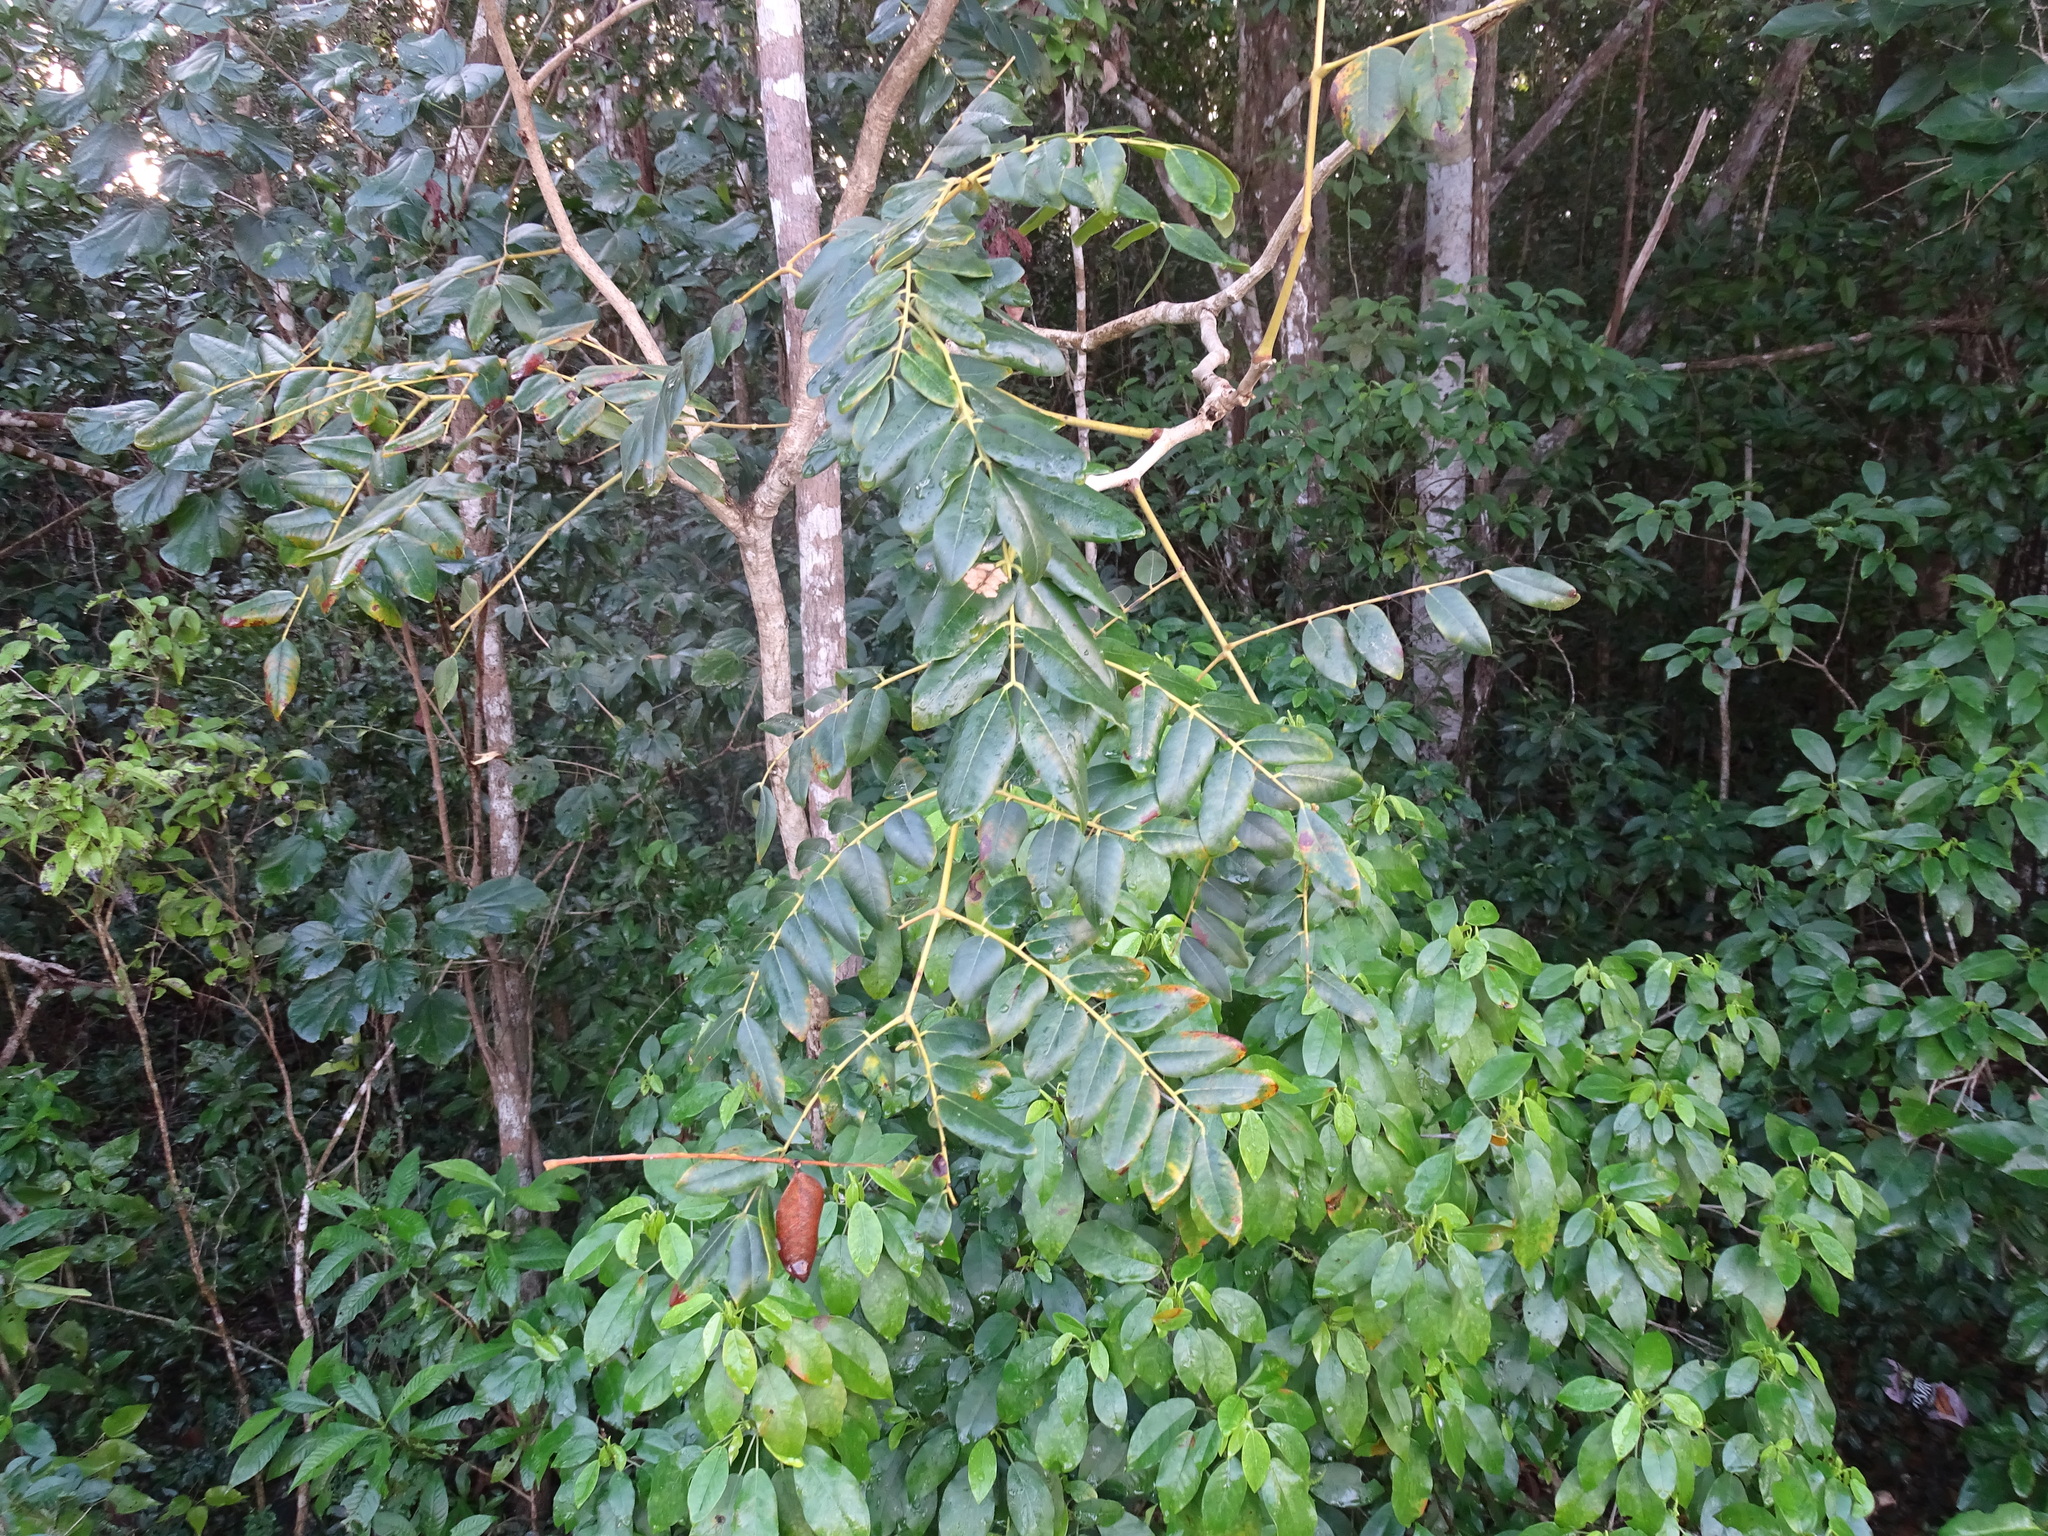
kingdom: Plantae
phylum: Tracheophyta
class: Magnoliopsida
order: Fabales
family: Fabaceae
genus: Cenostigma
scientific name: Cenostigma gaumeri
